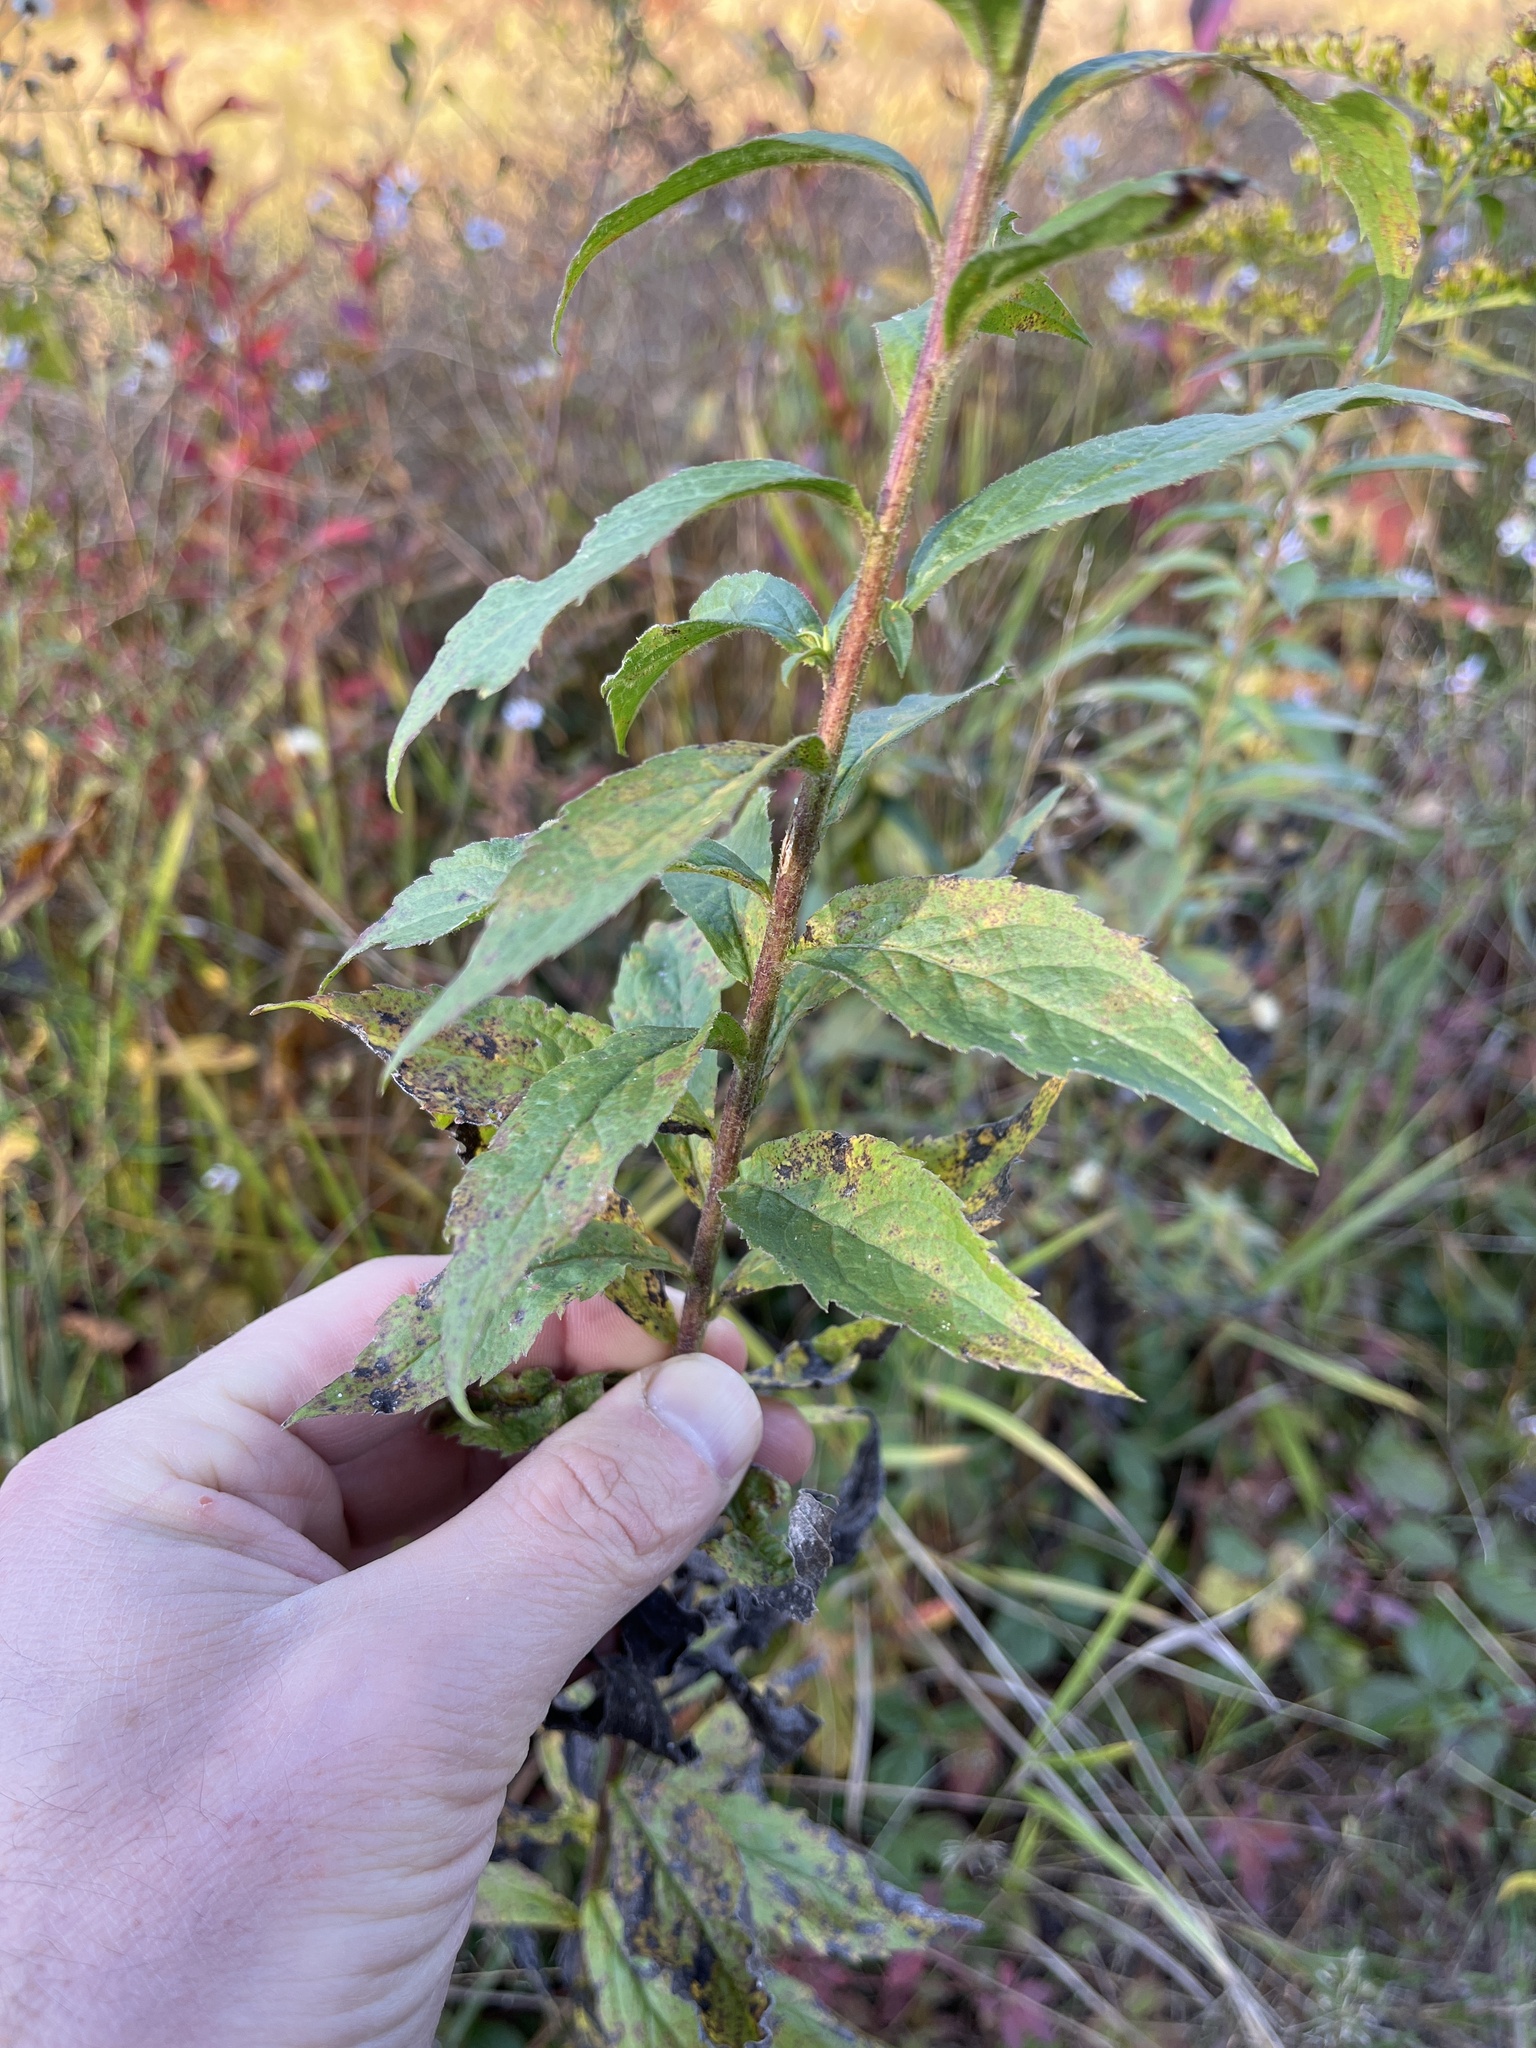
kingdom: Plantae
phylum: Tracheophyta
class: Magnoliopsida
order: Asterales
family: Asteraceae
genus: Solidago
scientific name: Solidago rugosa
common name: Rough-stemmed goldenrod
